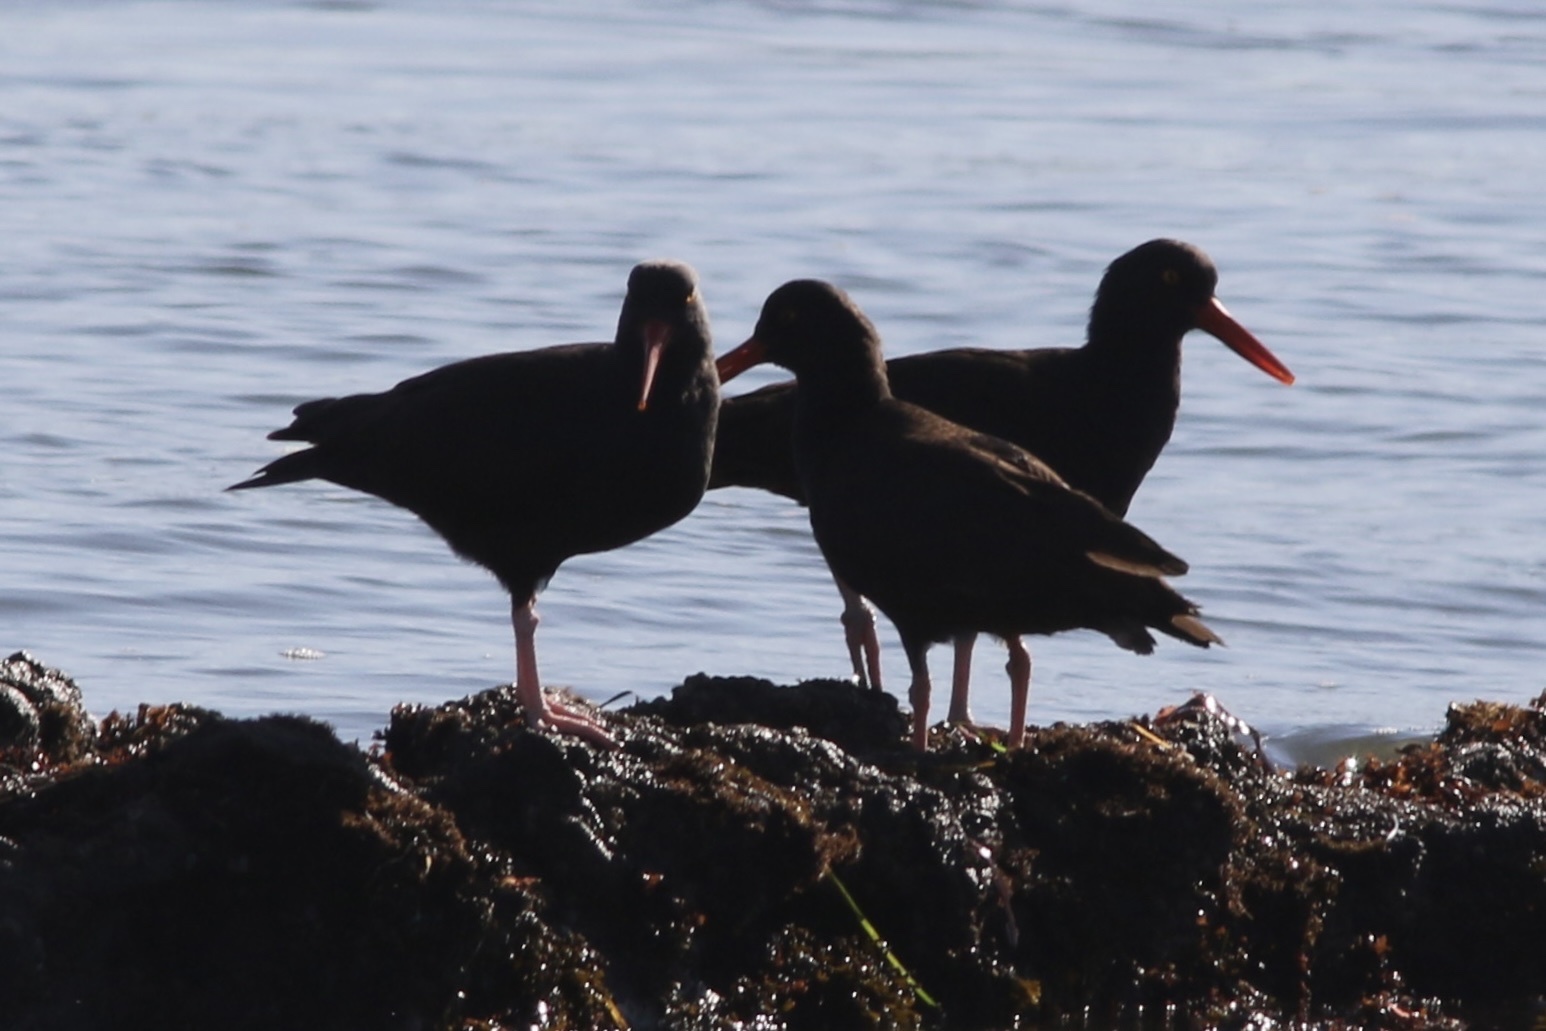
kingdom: Animalia
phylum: Chordata
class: Aves
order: Charadriiformes
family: Haematopodidae
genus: Haematopus
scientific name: Haematopus bachmani
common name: Black oystercatcher
